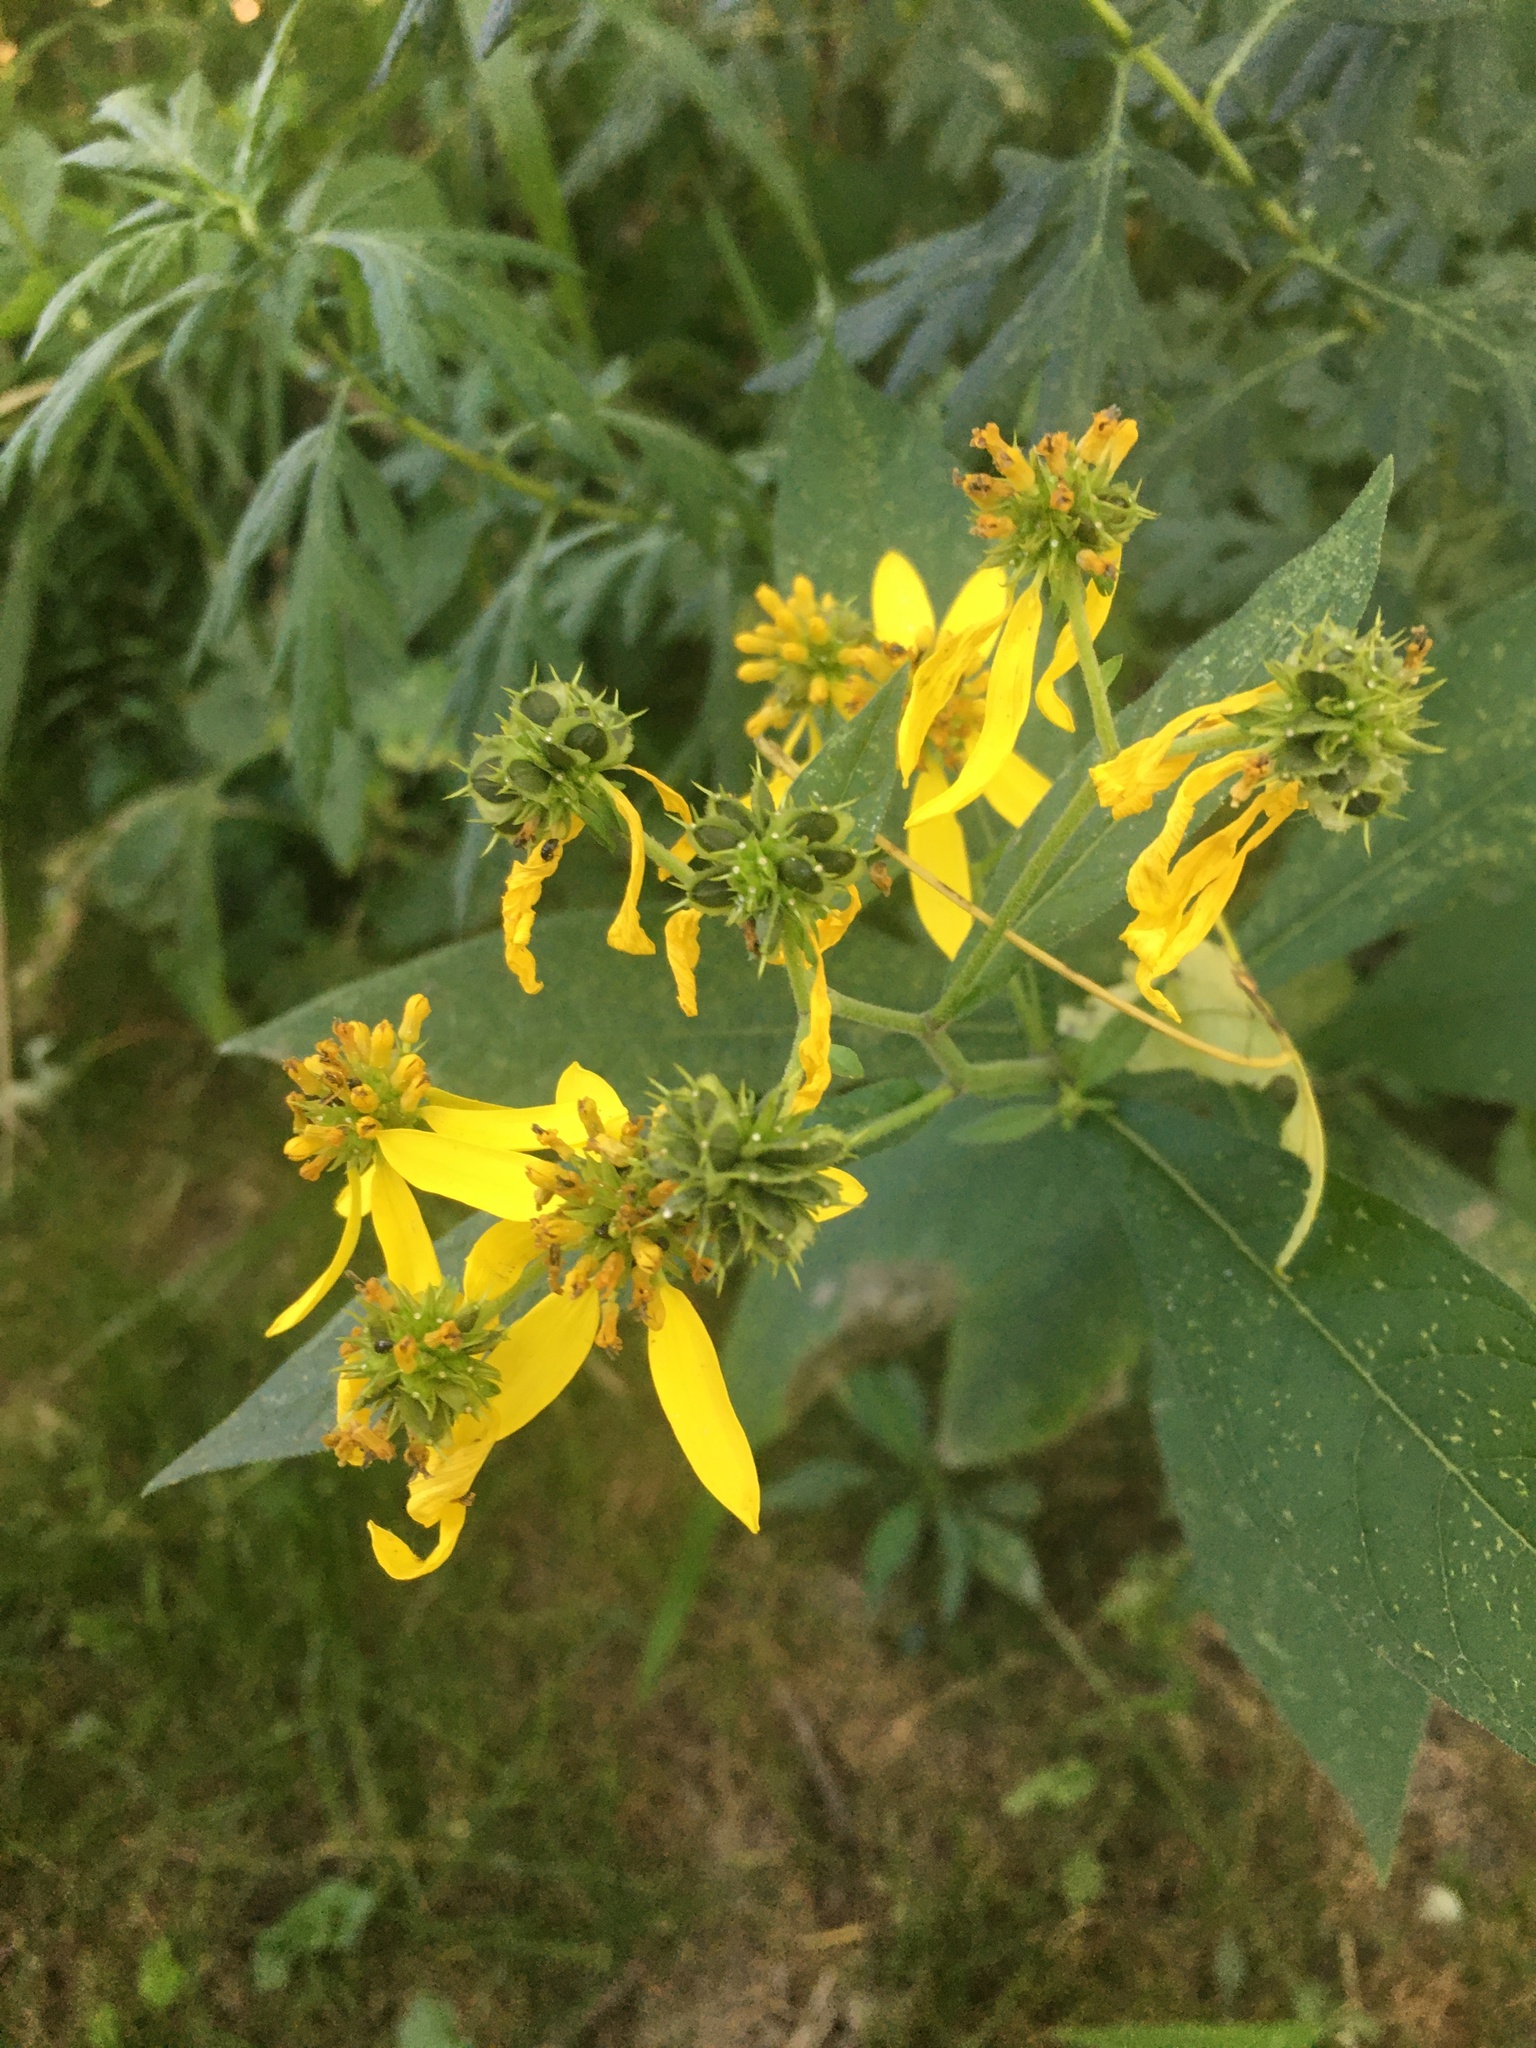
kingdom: Plantae
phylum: Tracheophyta
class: Magnoliopsida
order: Asterales
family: Asteraceae
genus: Verbesina
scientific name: Verbesina alternifolia
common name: Wingstem
